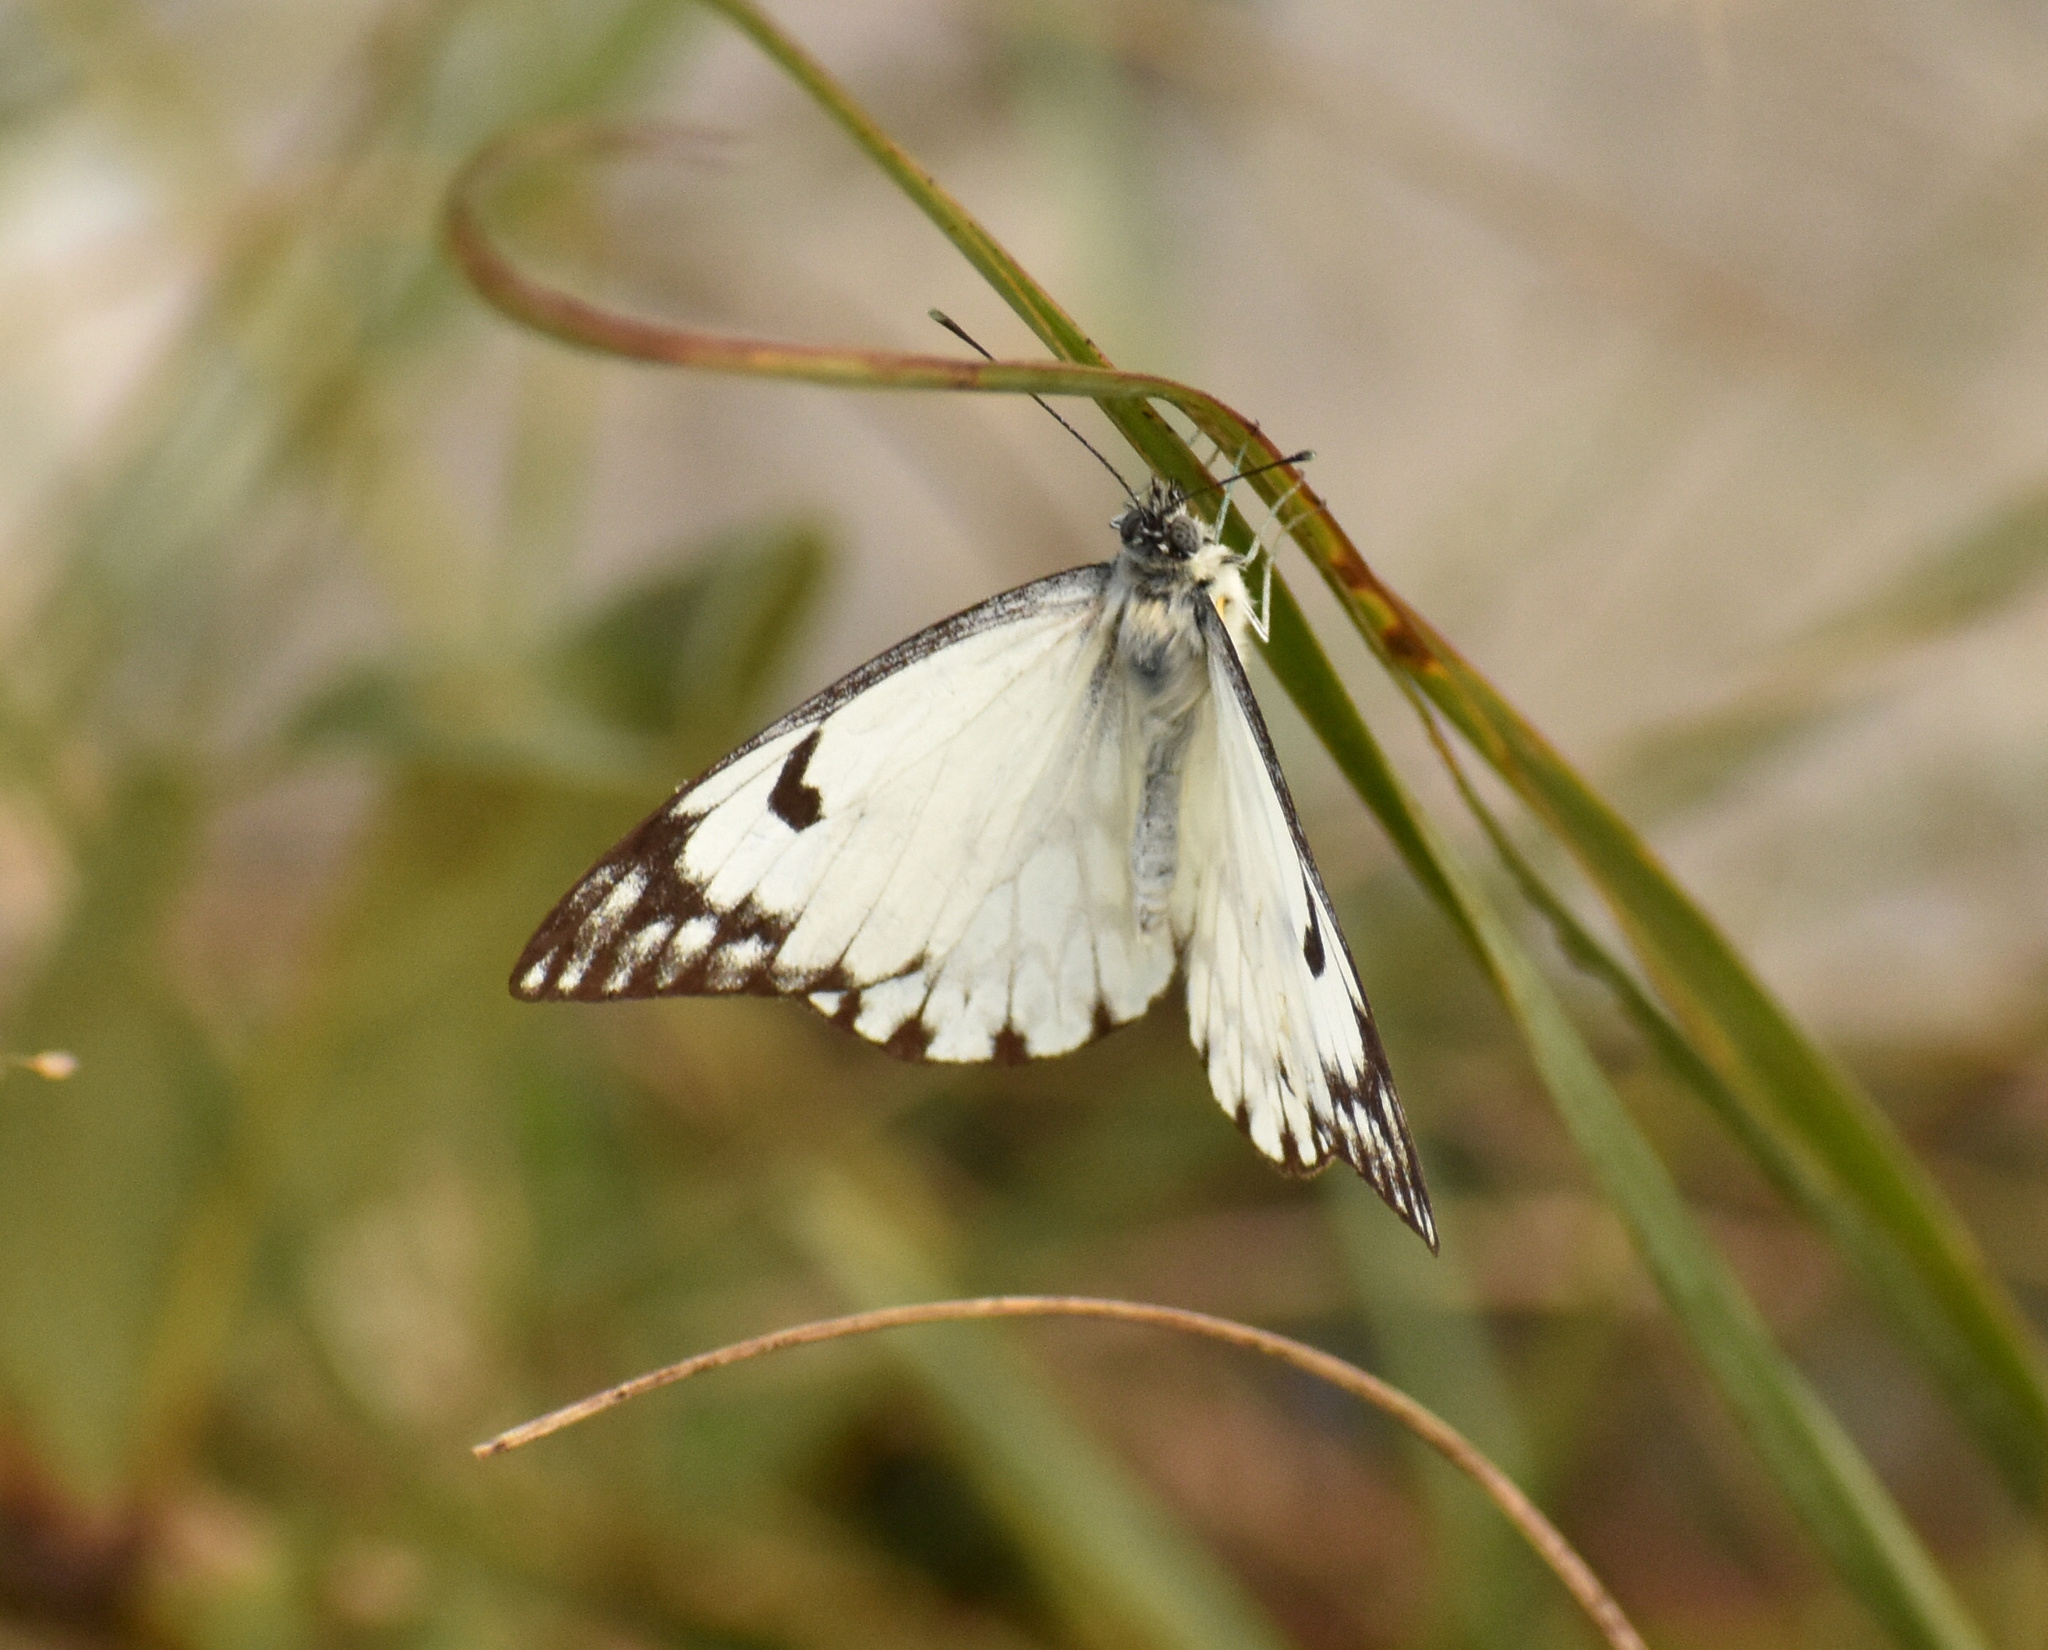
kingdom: Animalia
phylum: Arthropoda
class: Insecta
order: Lepidoptera
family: Pieridae
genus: Belenois
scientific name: Belenois gidica
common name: Pointed caper white
